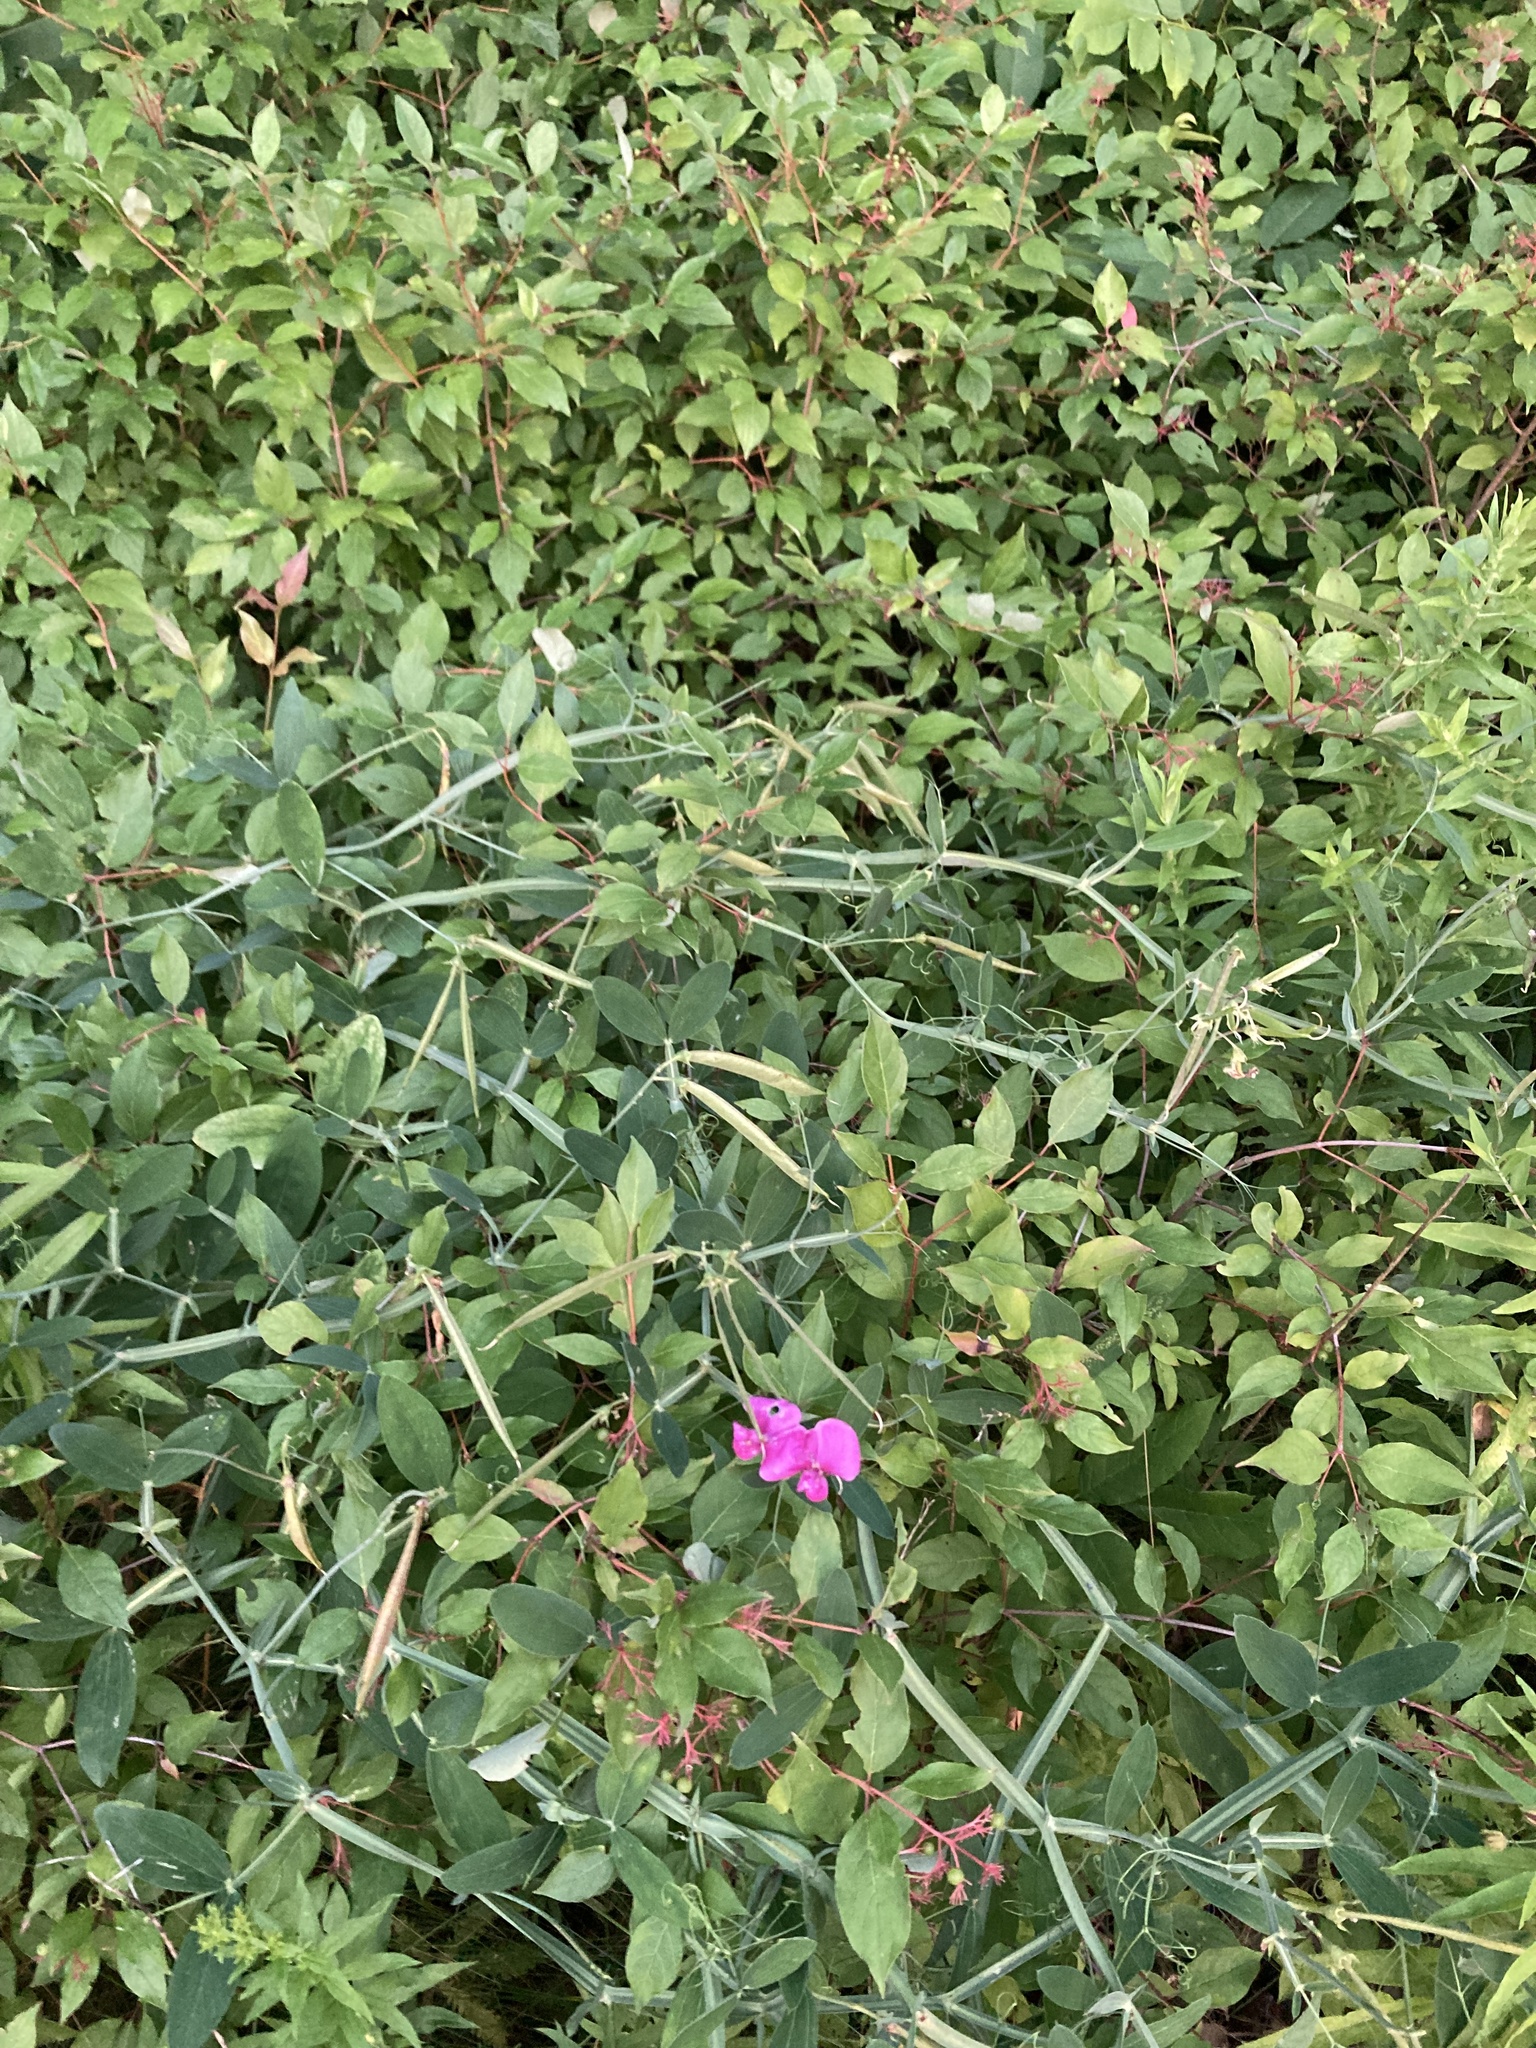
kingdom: Plantae
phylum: Tracheophyta
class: Magnoliopsida
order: Fabales
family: Fabaceae
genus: Lathyrus
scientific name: Lathyrus latifolius
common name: Perennial pea
